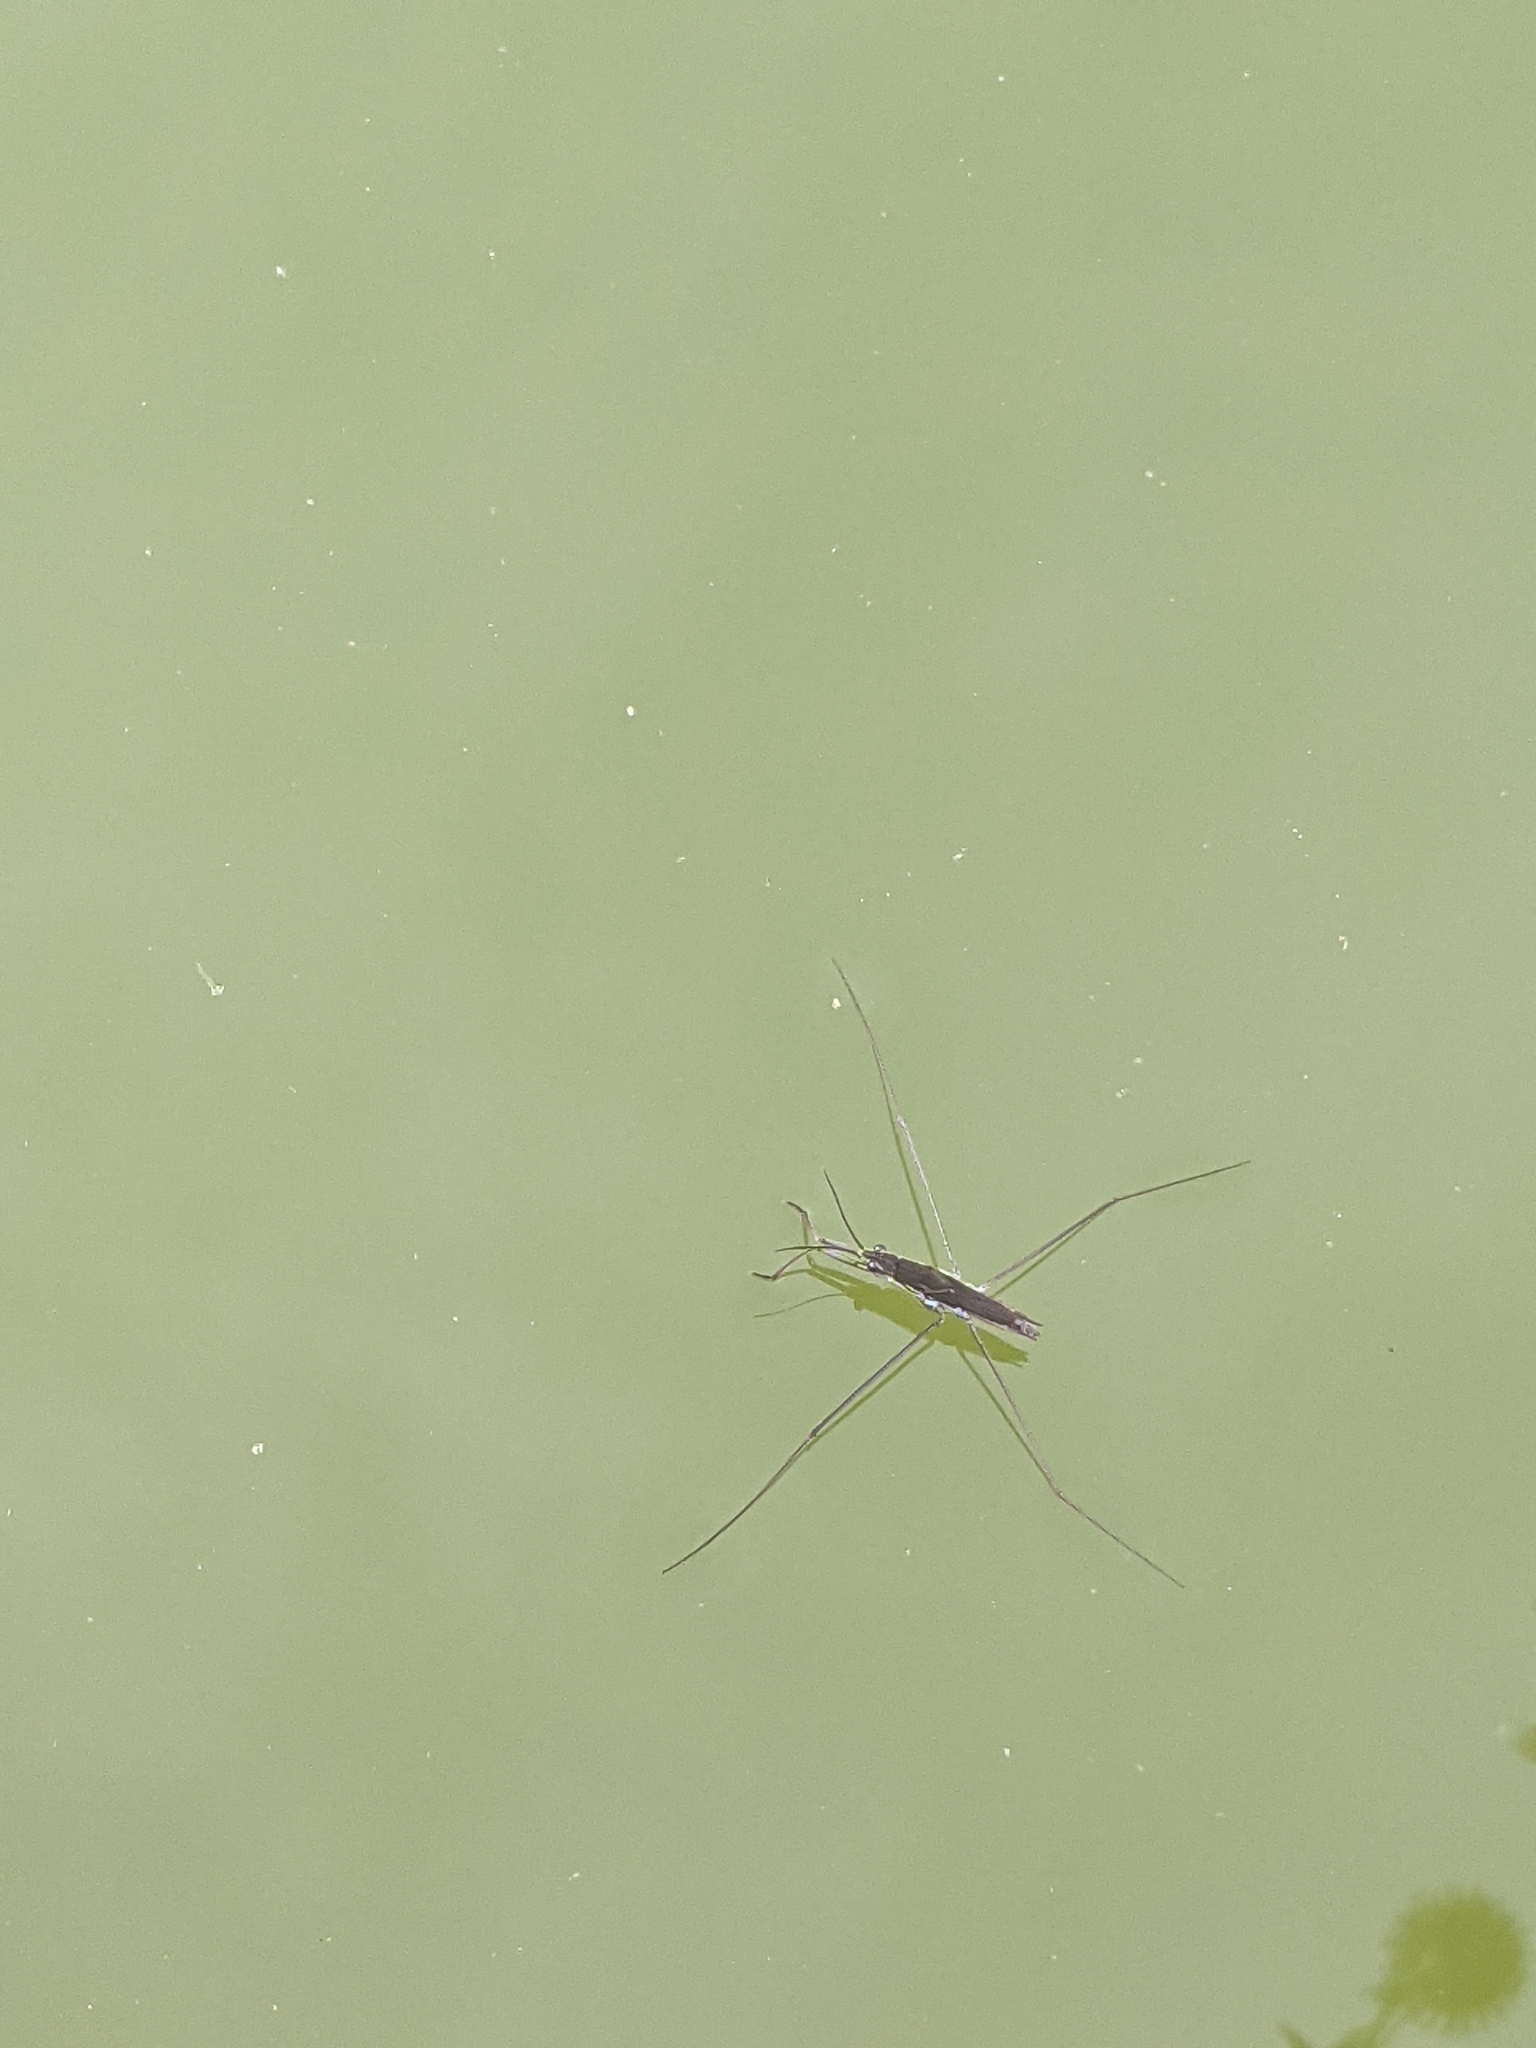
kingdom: Animalia
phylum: Arthropoda
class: Insecta
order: Hemiptera
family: Gerridae
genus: Aquarius
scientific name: Aquarius paludum
